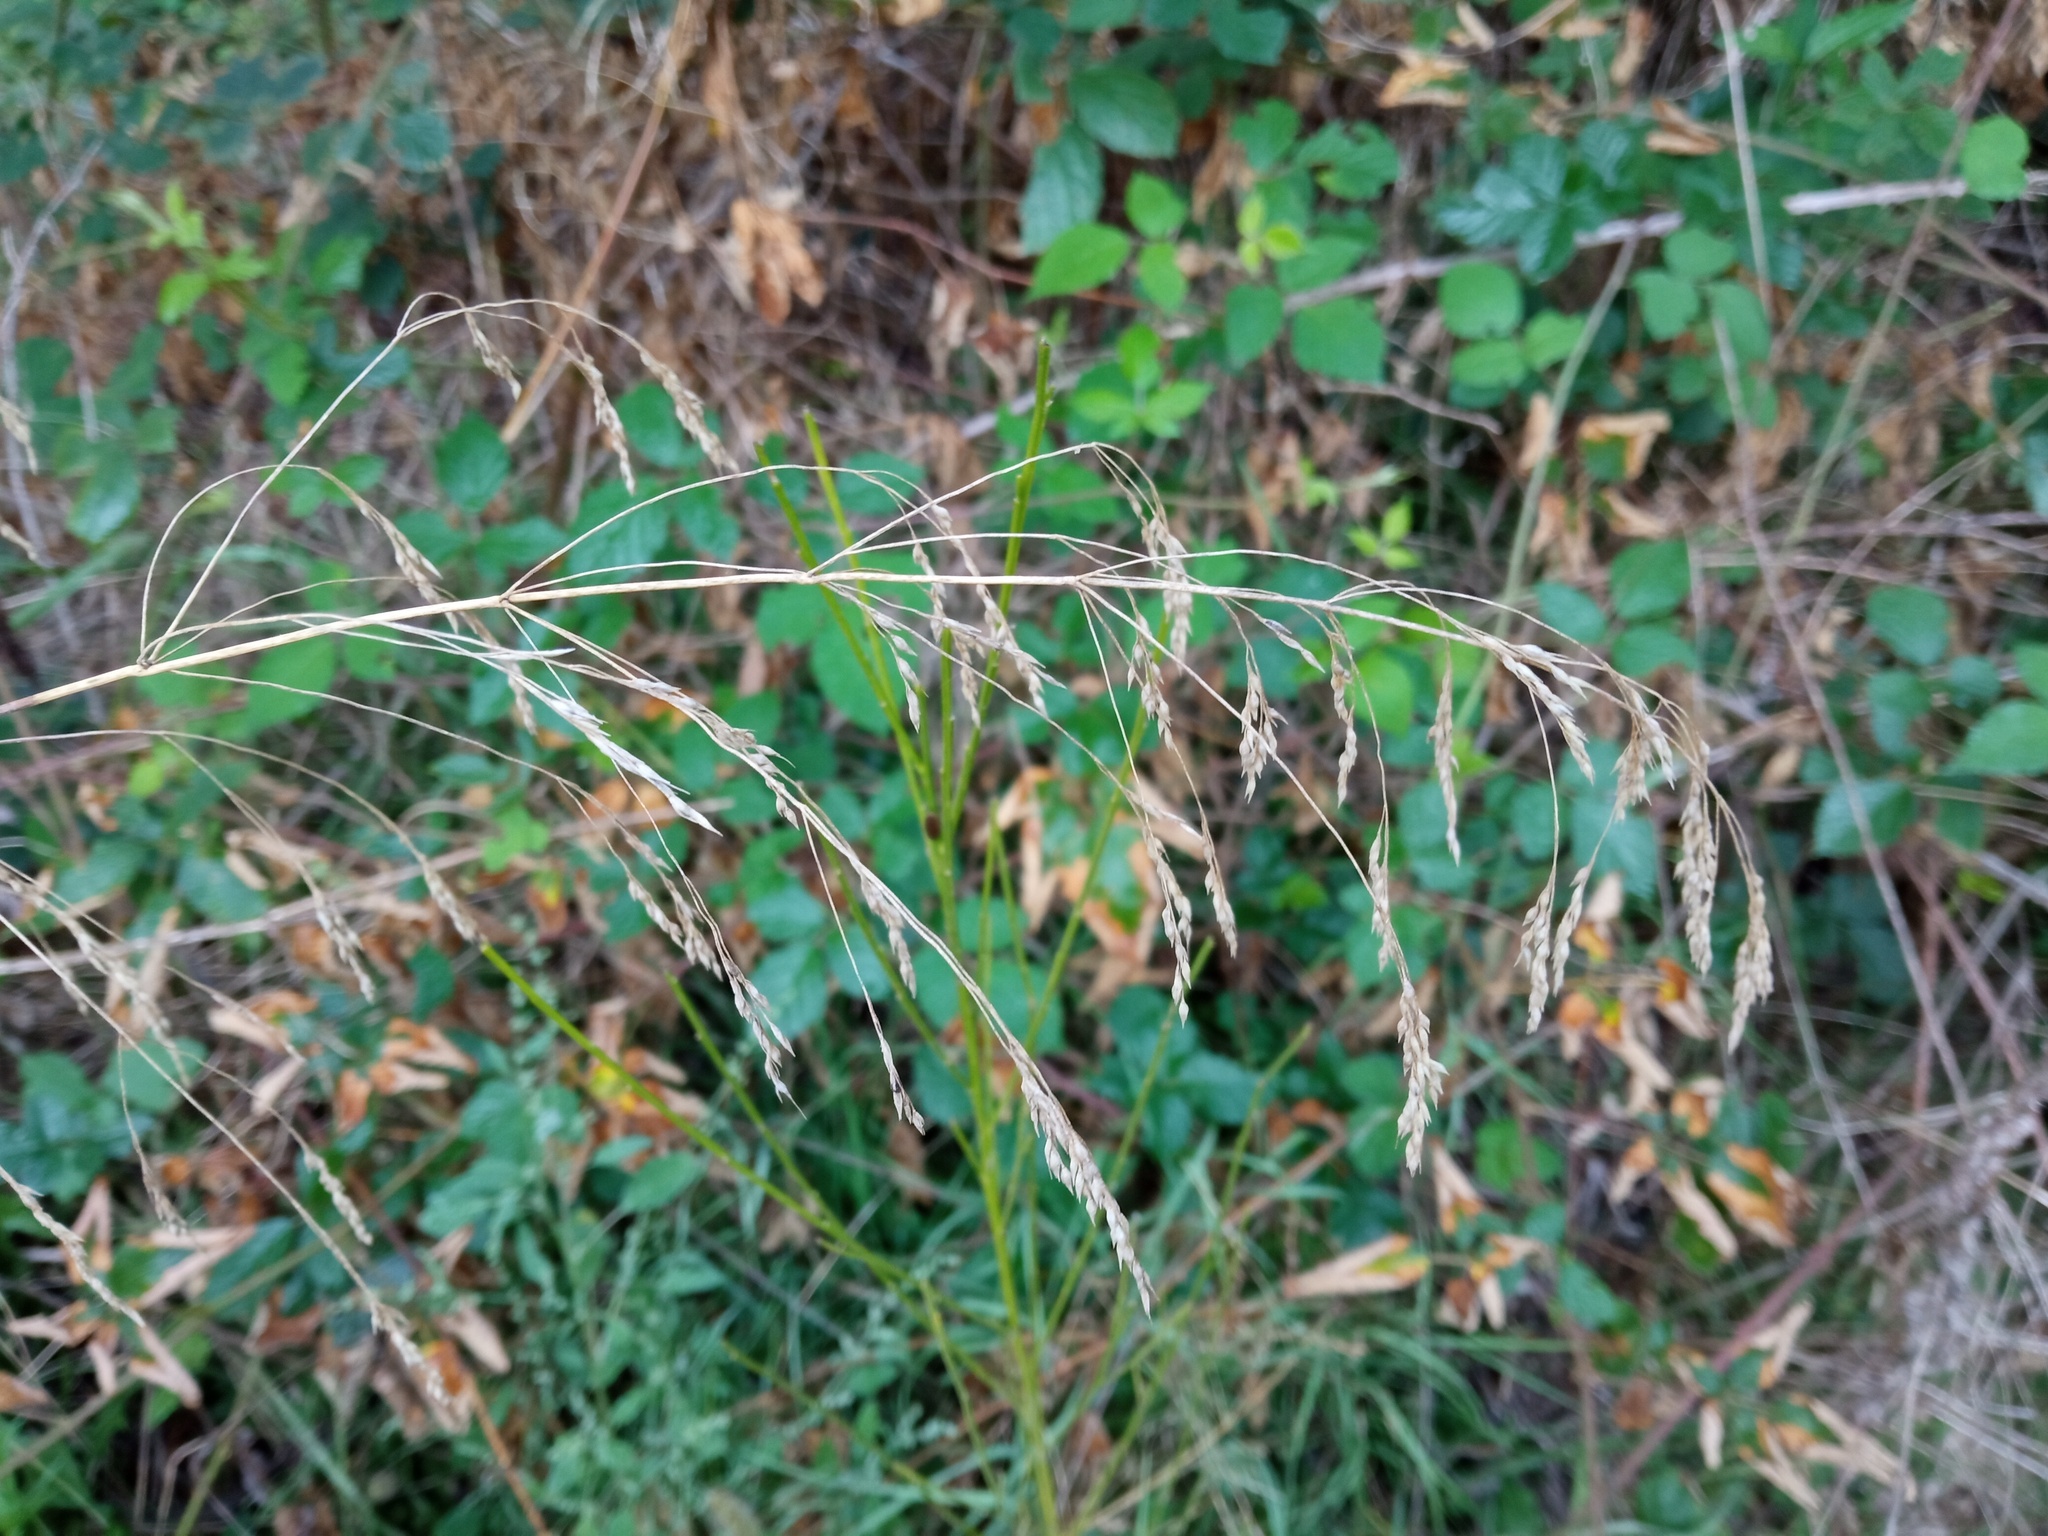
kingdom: Plantae
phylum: Tracheophyta
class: Liliopsida
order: Poales
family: Poaceae
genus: Oloptum
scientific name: Oloptum miliaceum
